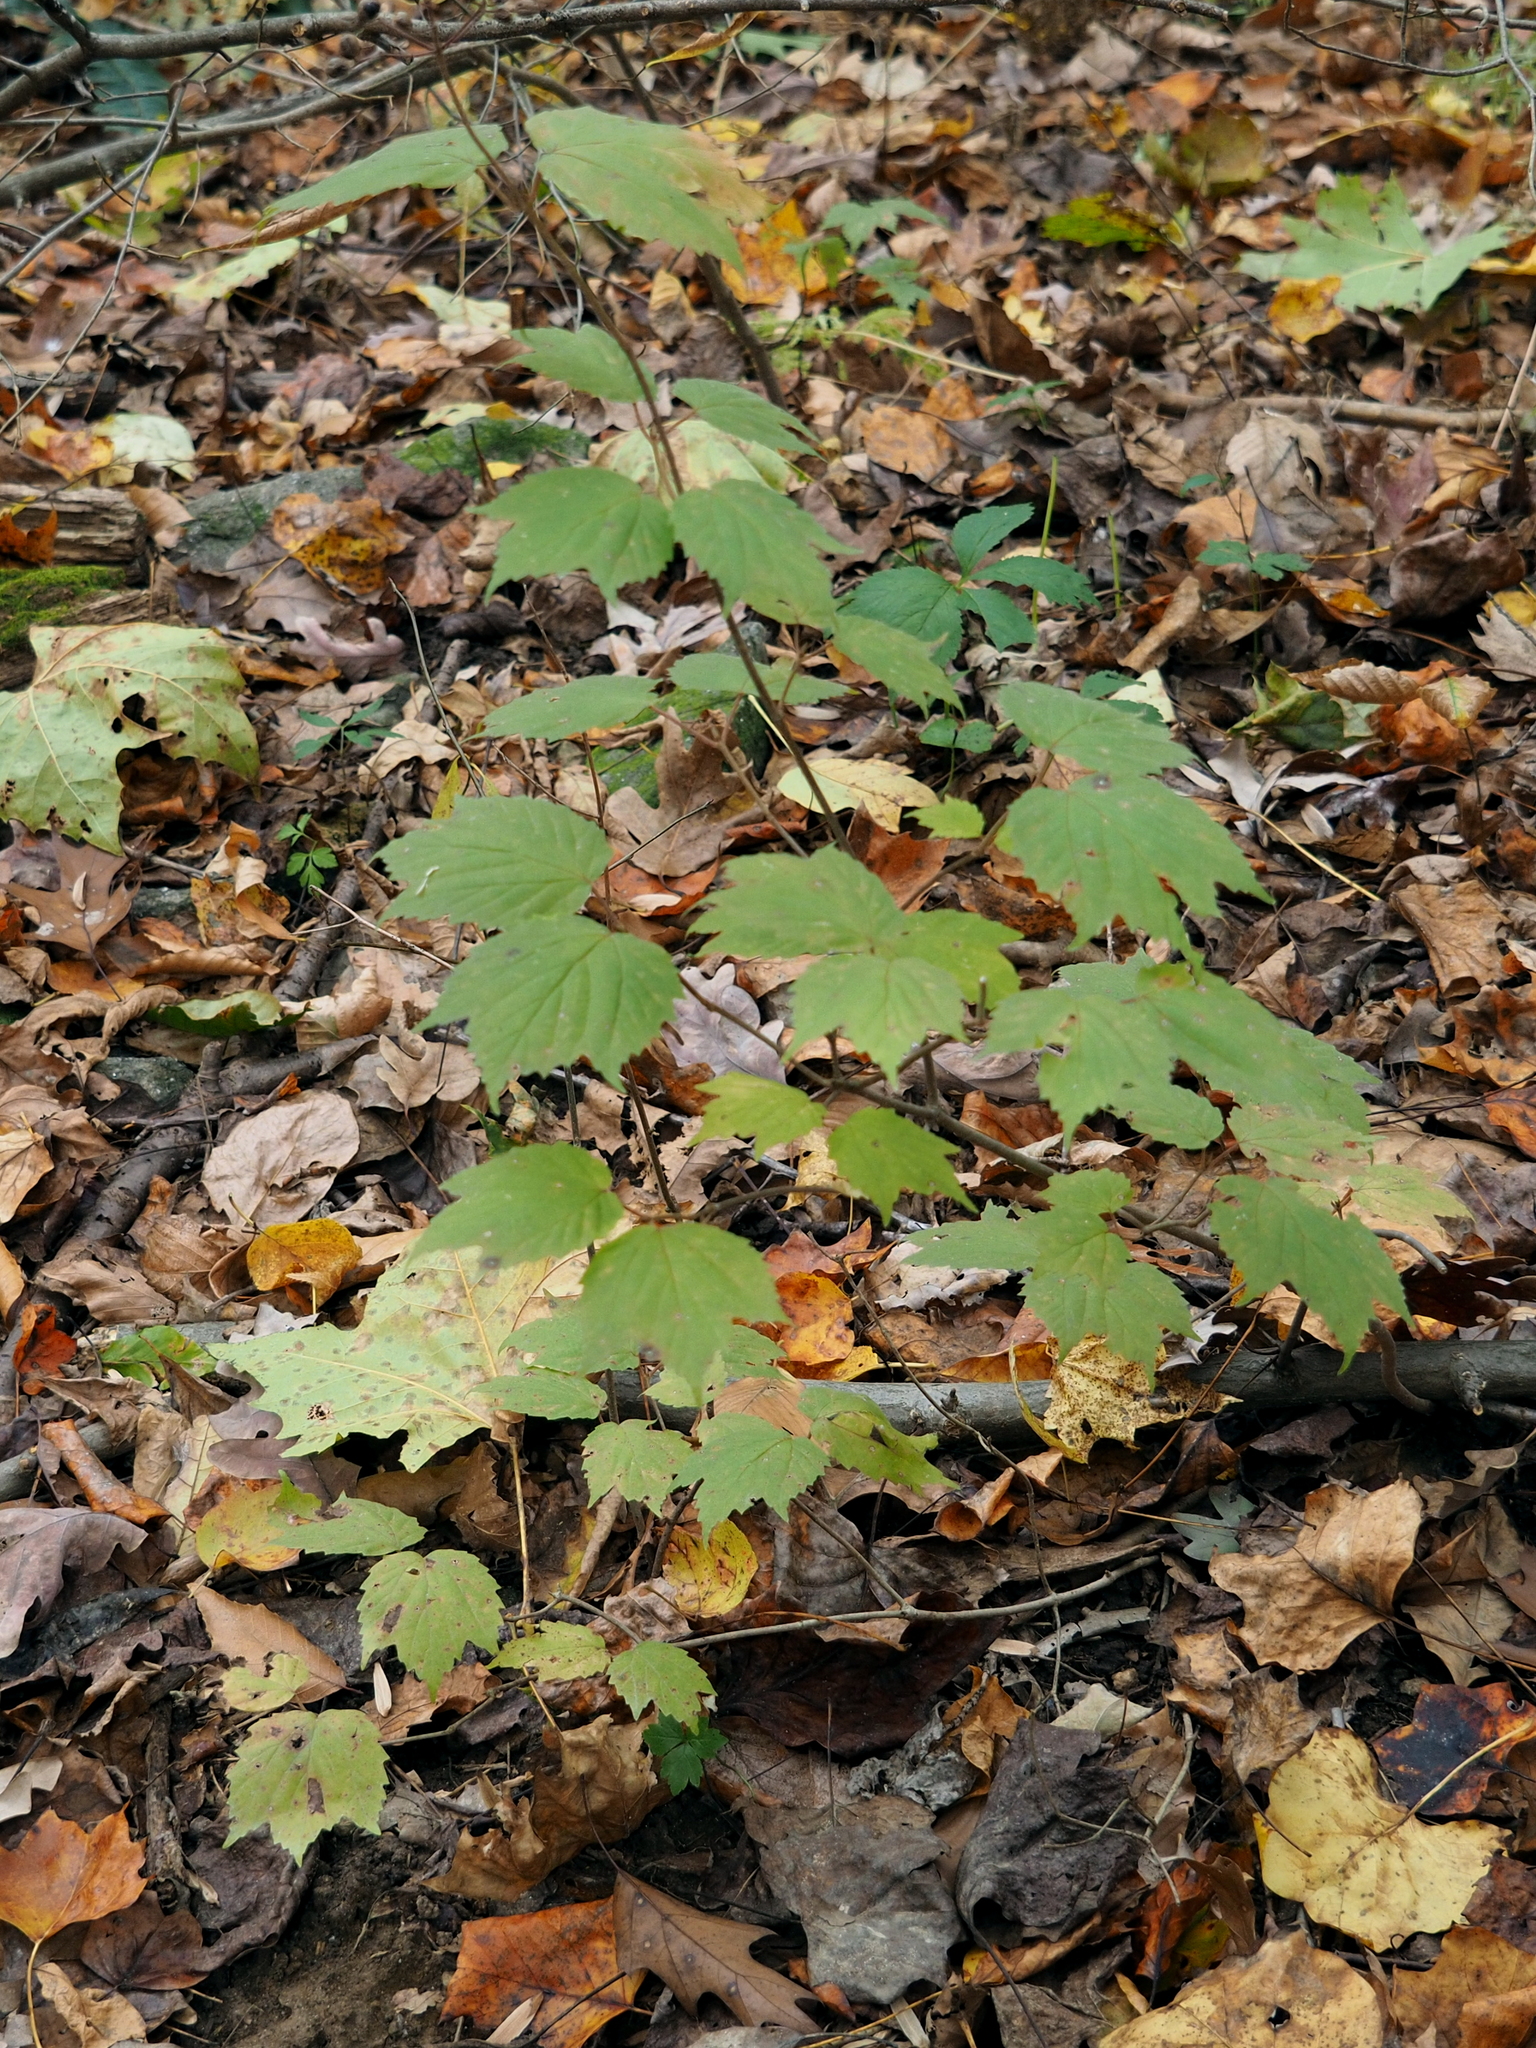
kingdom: Plantae
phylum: Tracheophyta
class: Magnoliopsida
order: Dipsacales
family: Viburnaceae
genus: Viburnum
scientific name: Viburnum acerifolium
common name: Dockmackie
